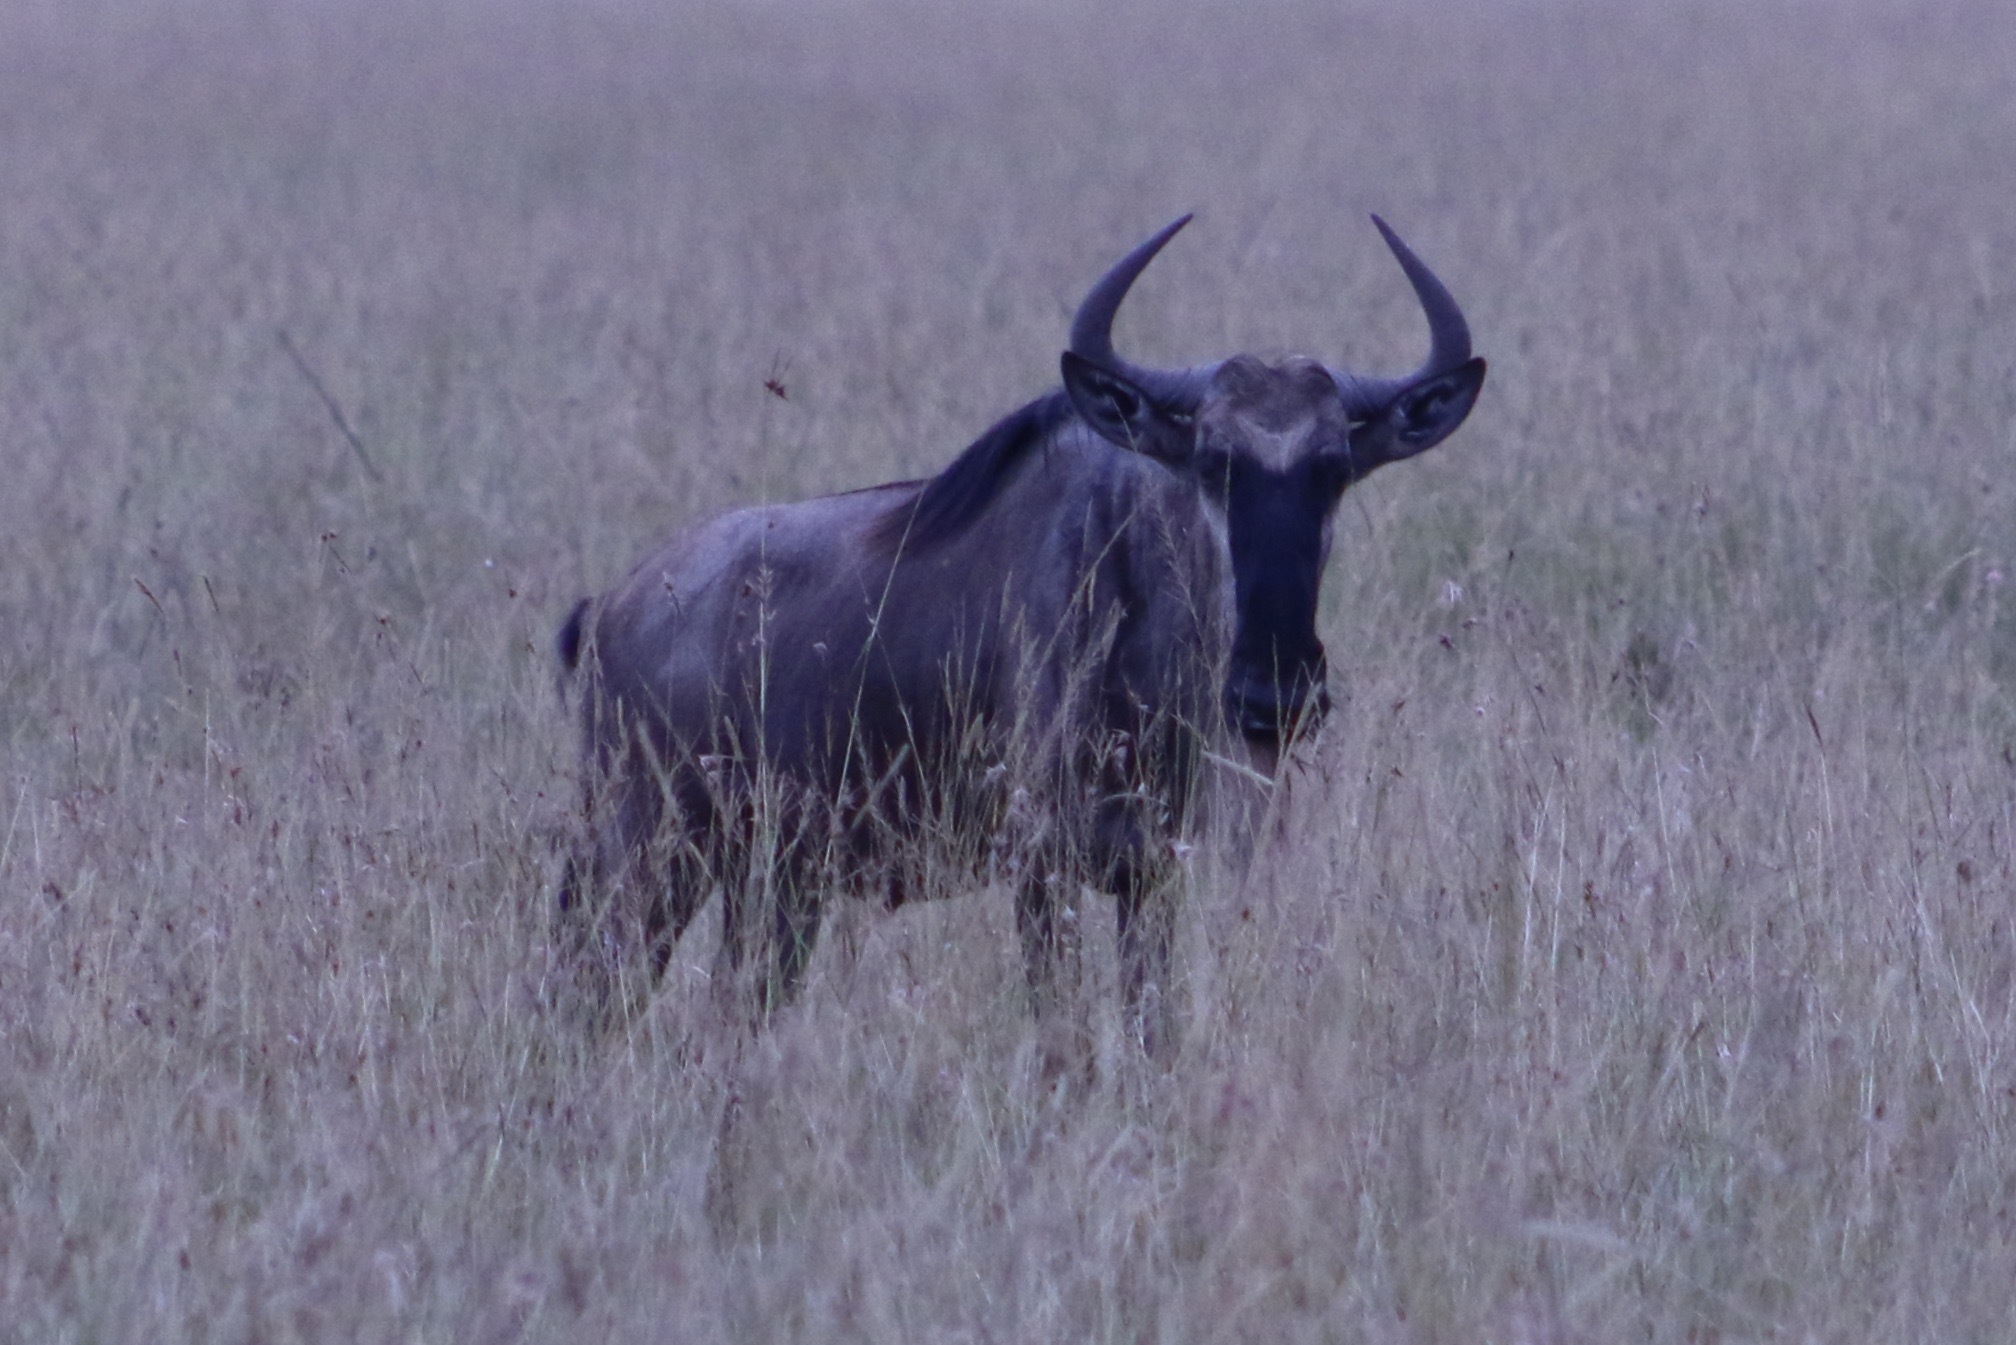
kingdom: Animalia
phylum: Chordata
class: Mammalia
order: Artiodactyla
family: Bovidae
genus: Connochaetes
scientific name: Connochaetes taurinus
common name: Blue wildebeest
